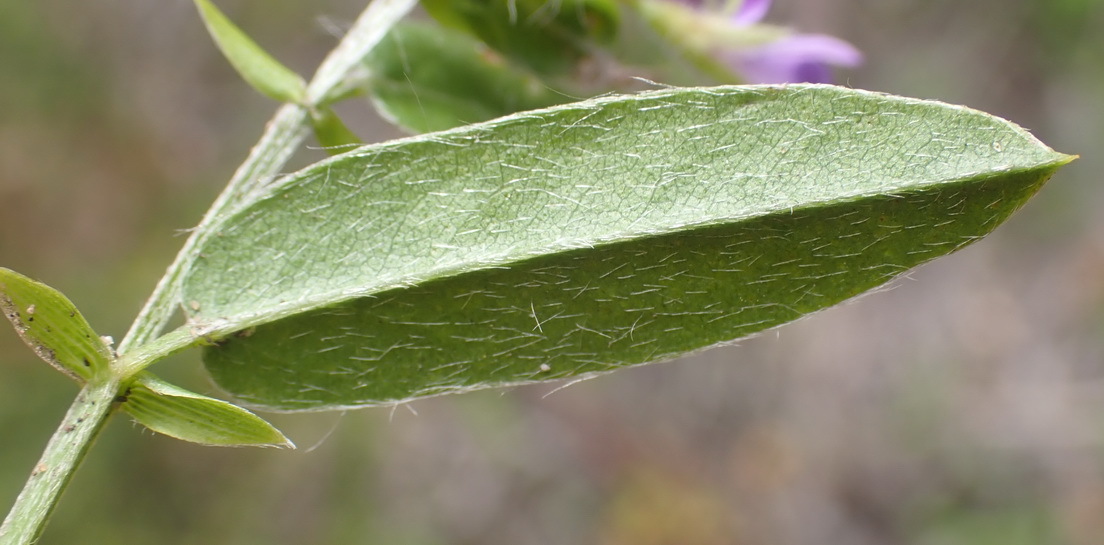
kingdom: Plantae
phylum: Tracheophyta
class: Magnoliopsida
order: Fabales
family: Fabaceae
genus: Psoralea
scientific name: Psoralea plauta
